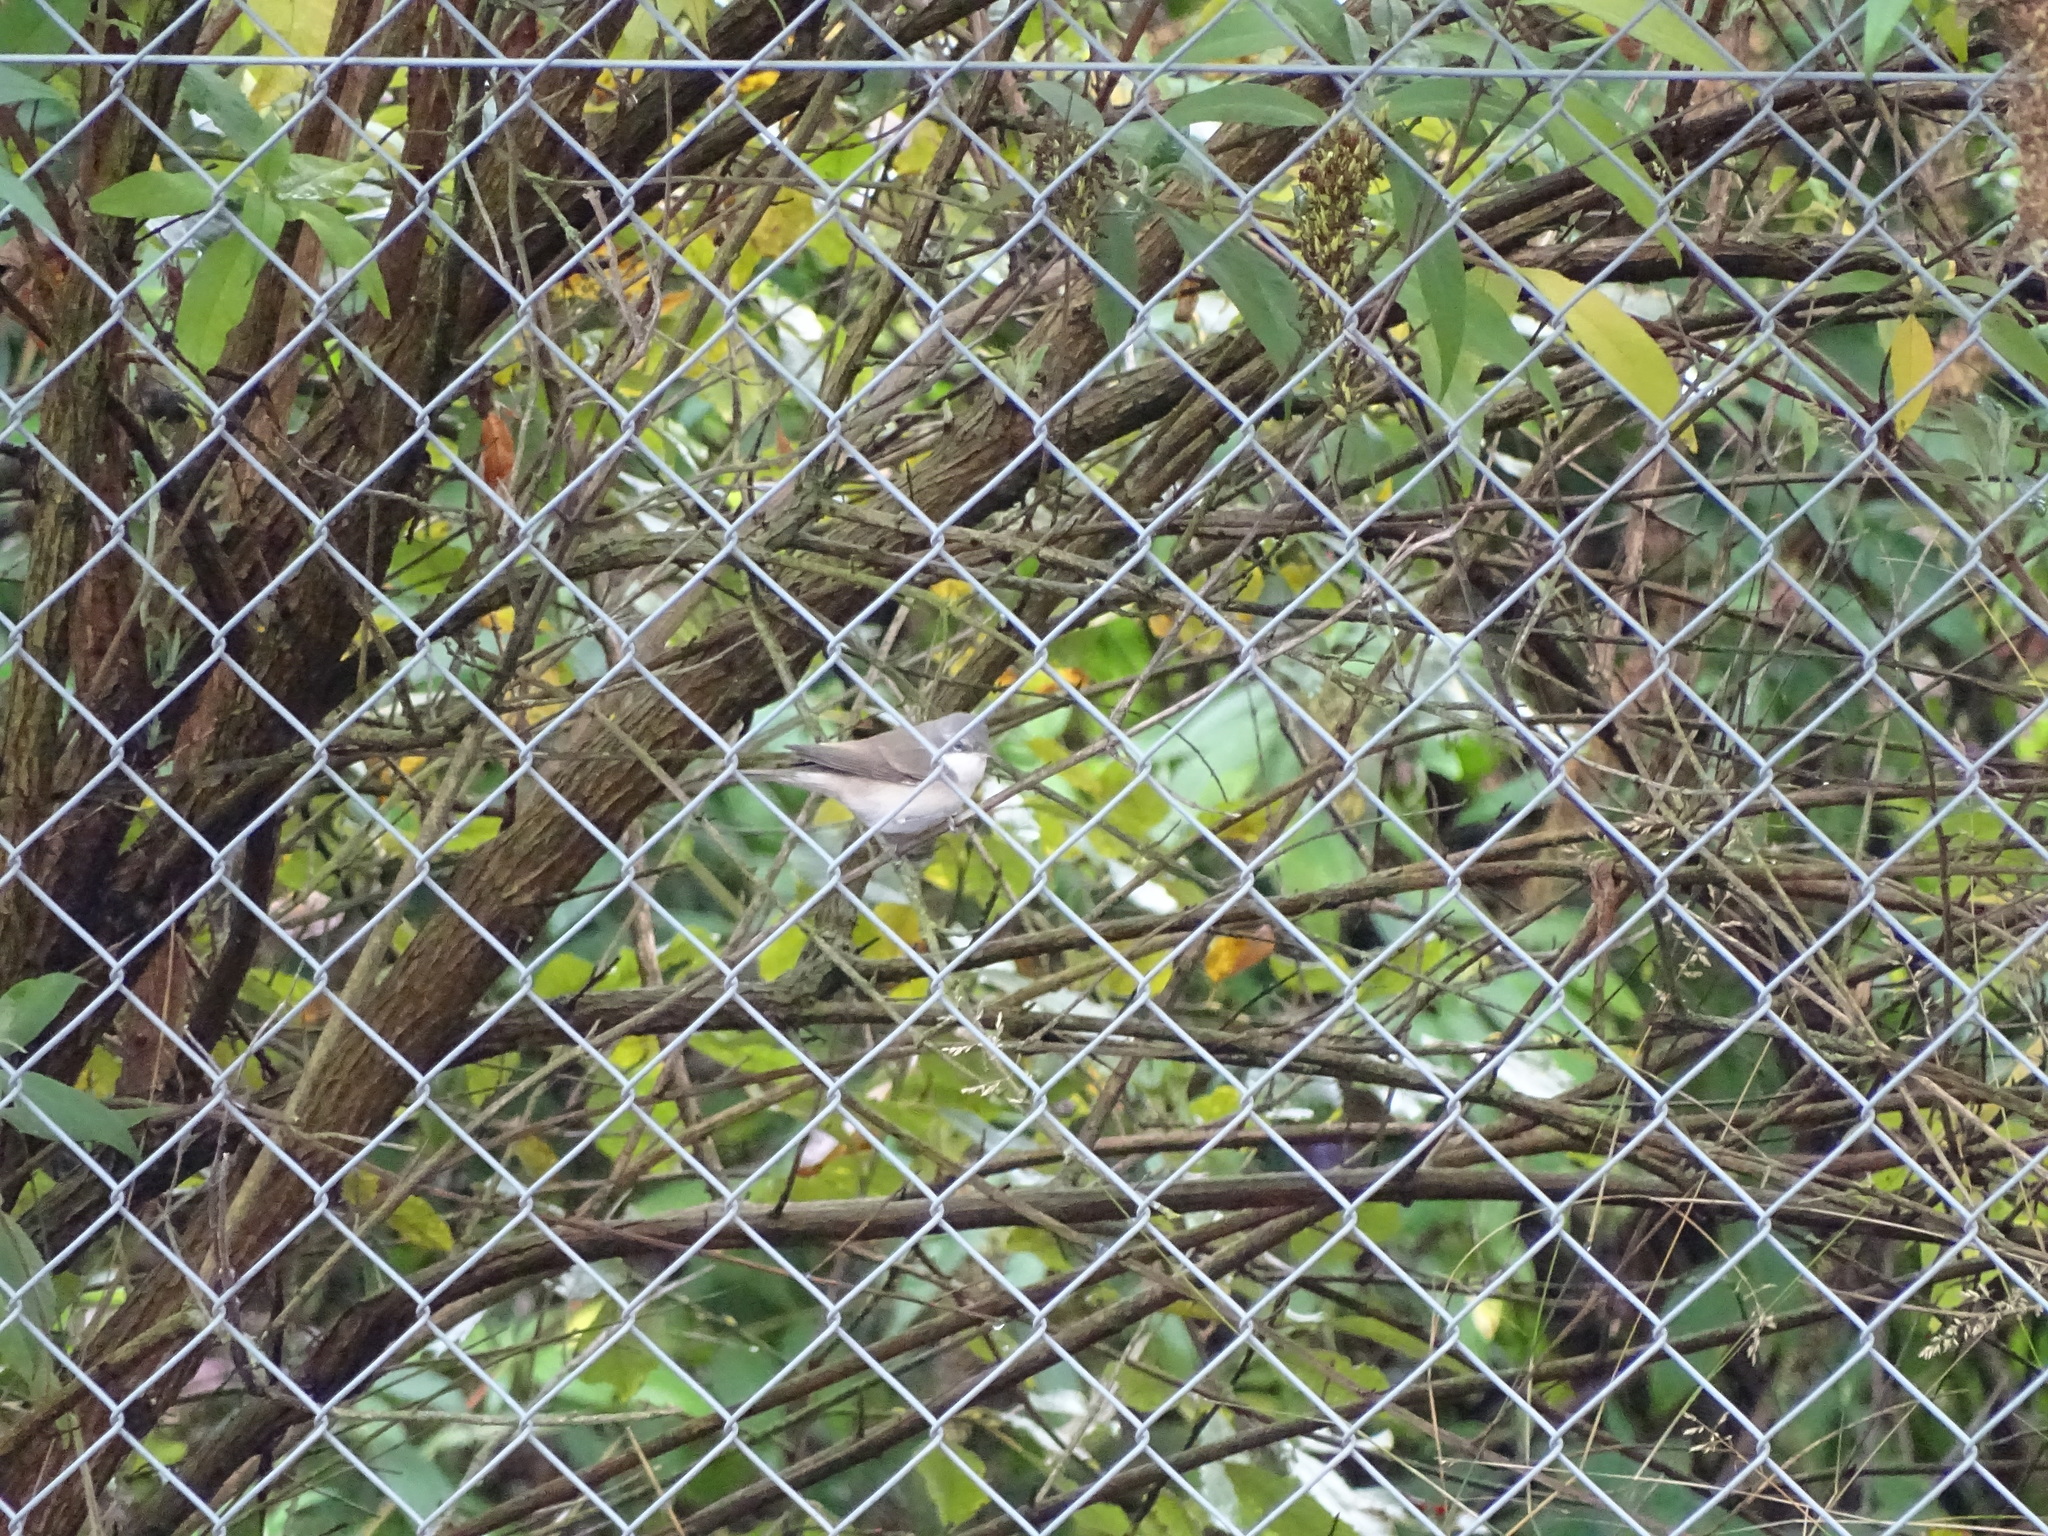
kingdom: Animalia
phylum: Chordata
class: Aves
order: Passeriformes
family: Sylviidae
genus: Sylvia
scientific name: Sylvia curruca
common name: Lesser whitethroat
